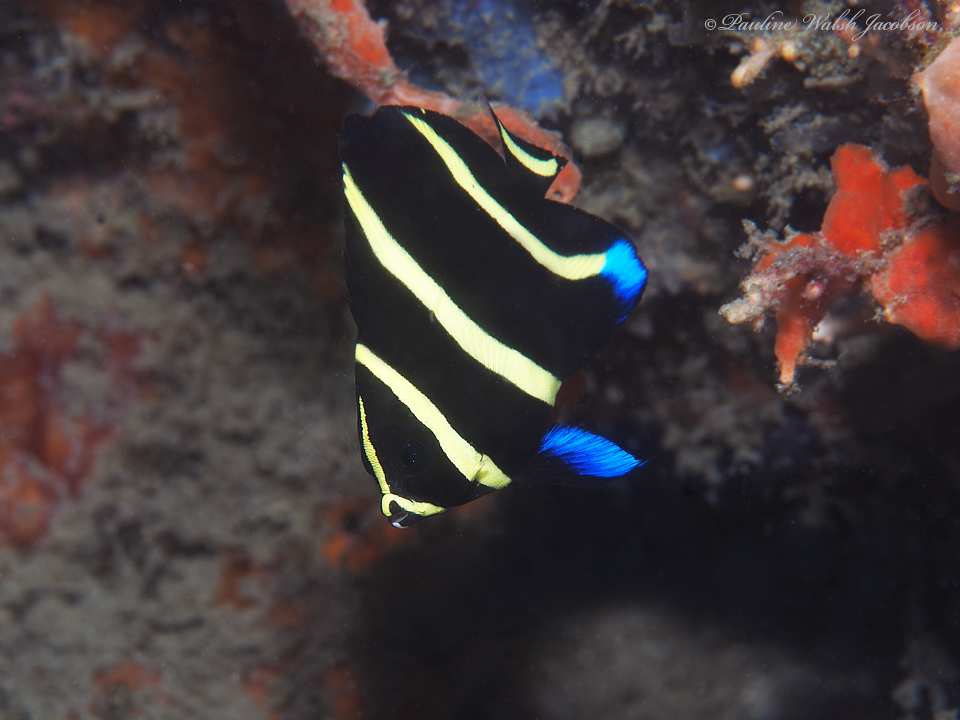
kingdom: Animalia
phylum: Chordata
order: Perciformes
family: Pomacanthidae
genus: Pomacanthus
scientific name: Pomacanthus arcuatus
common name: Gray angelfish
